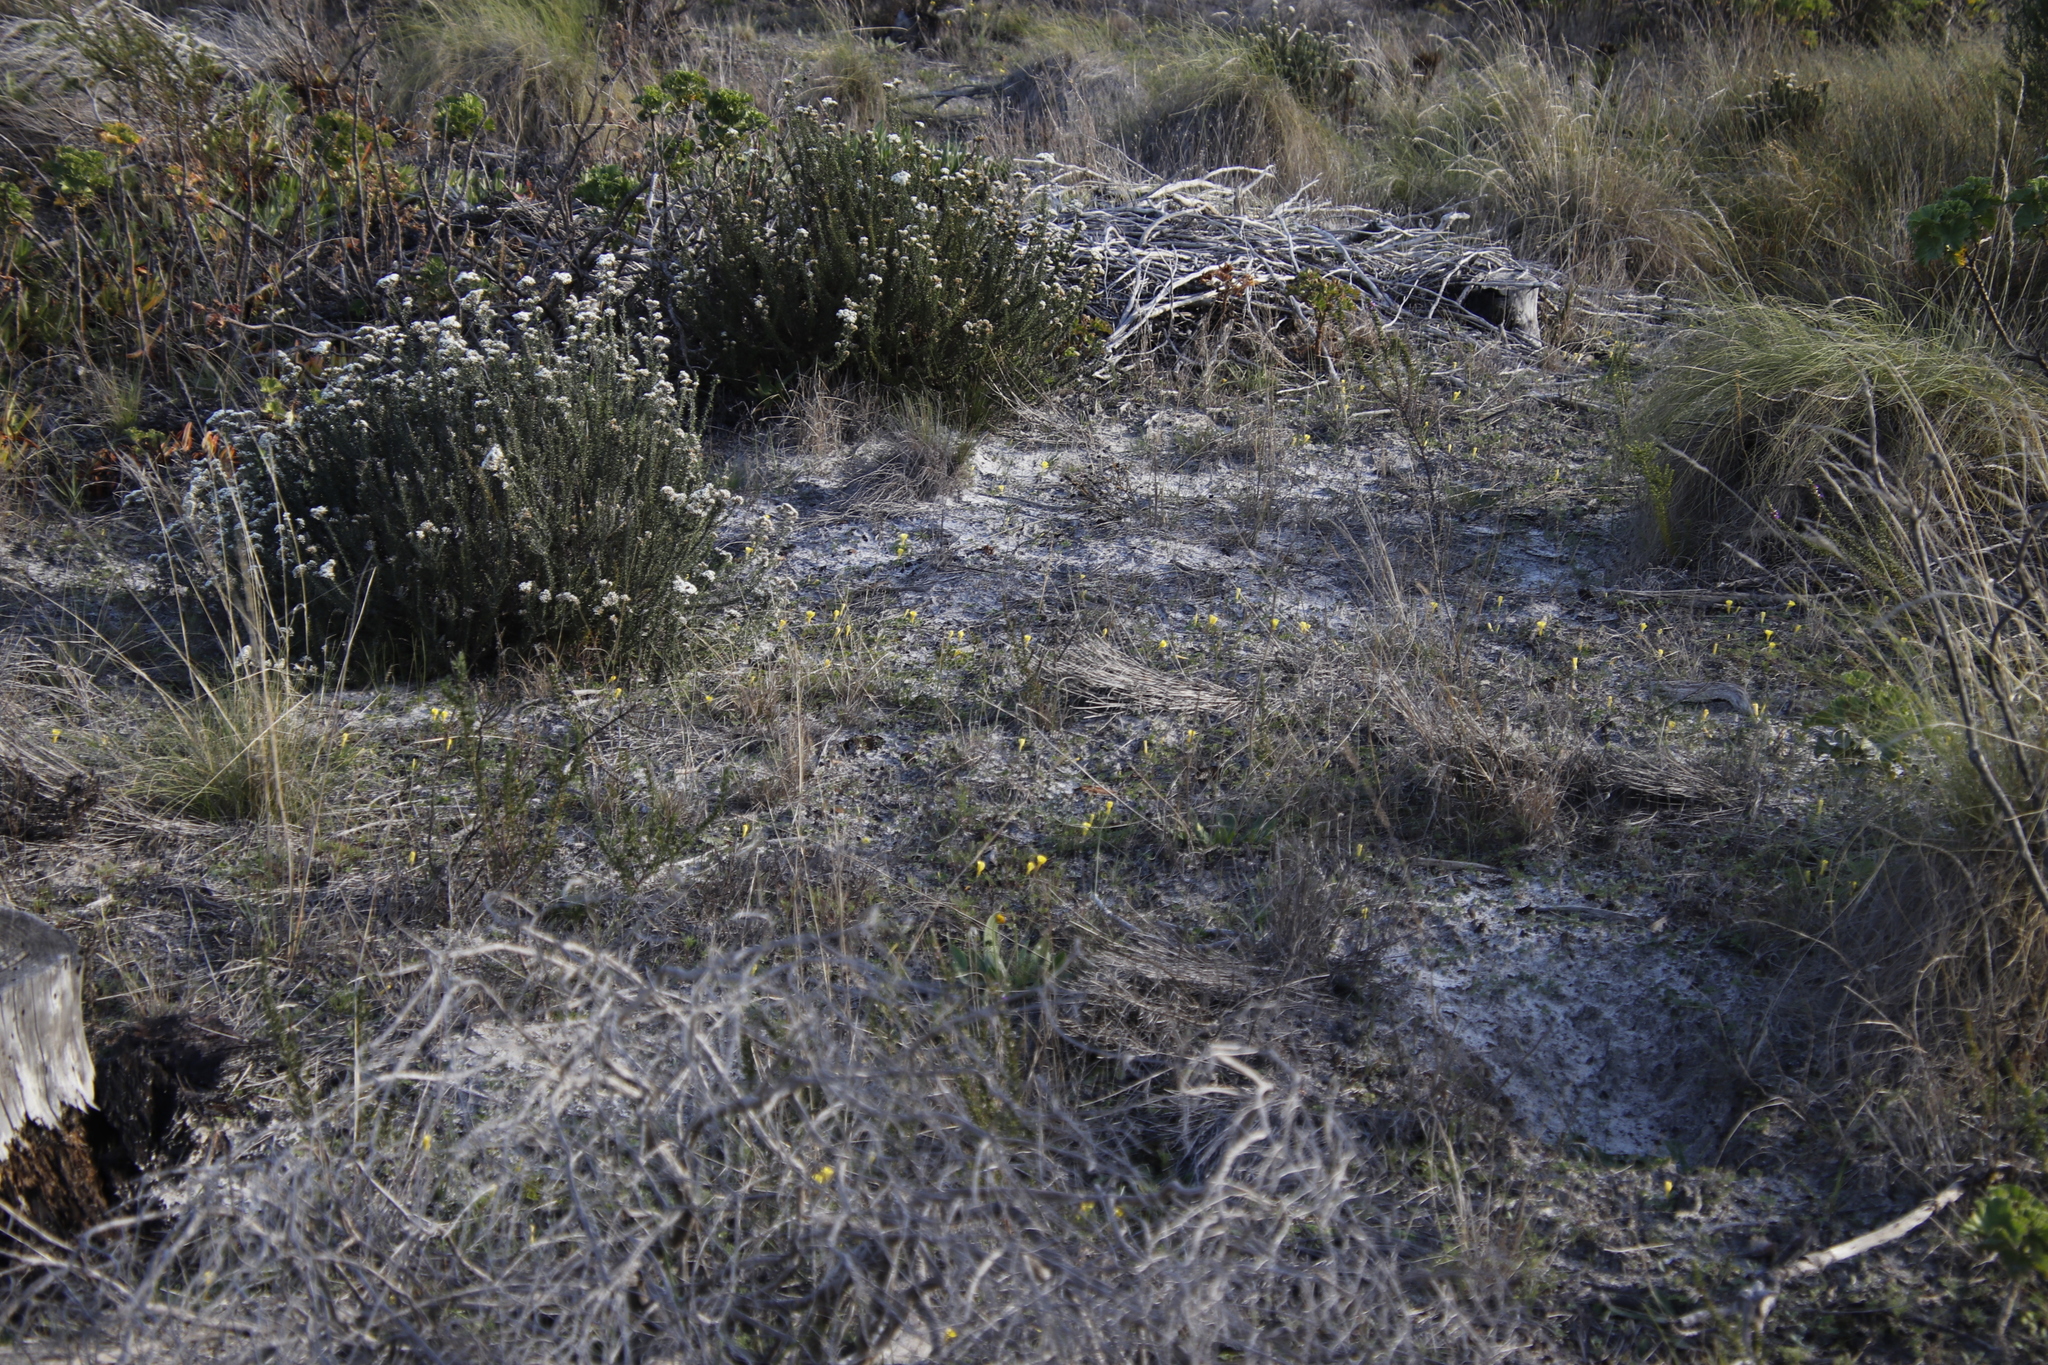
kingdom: Plantae
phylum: Tracheophyta
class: Magnoliopsida
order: Oxalidales
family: Oxalidaceae
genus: Oxalis
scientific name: Oxalis luteola
